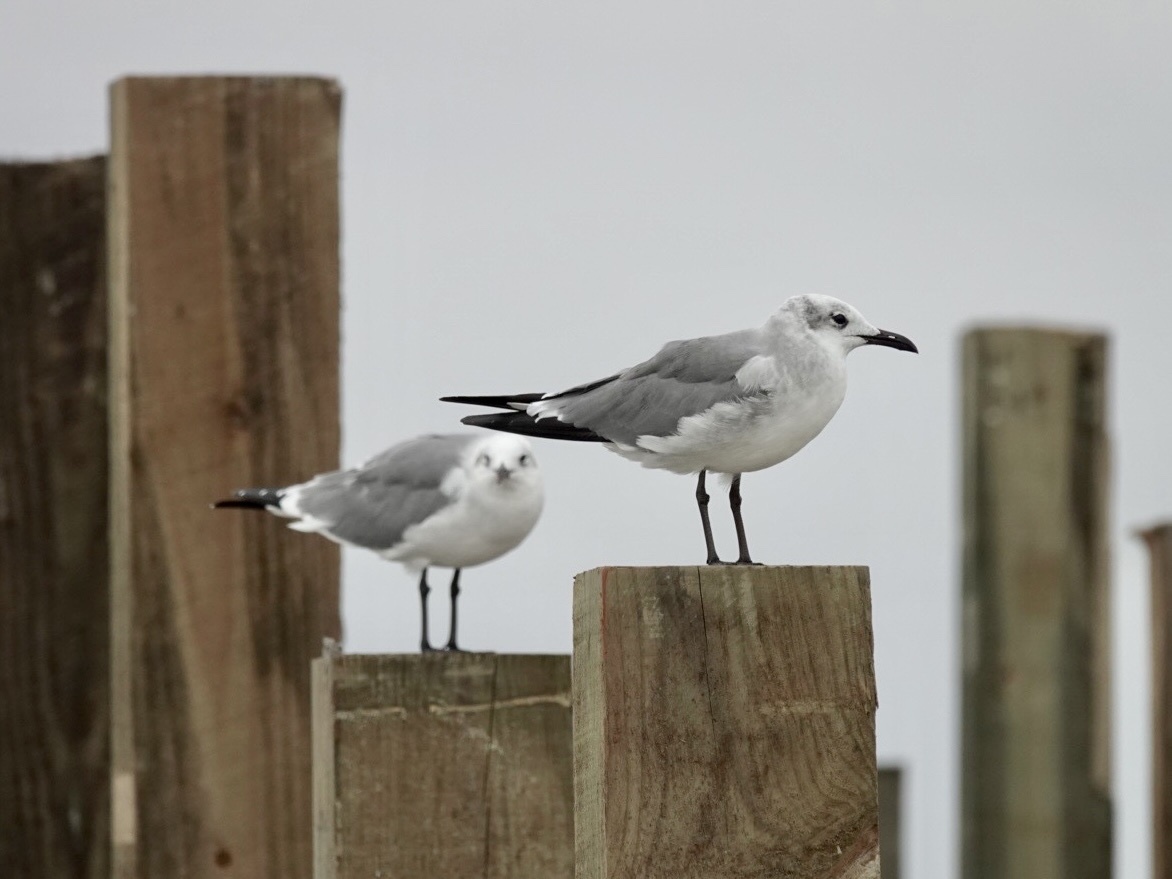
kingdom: Animalia
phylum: Chordata
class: Aves
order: Charadriiformes
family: Laridae
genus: Leucophaeus
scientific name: Leucophaeus atricilla
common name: Laughing gull
